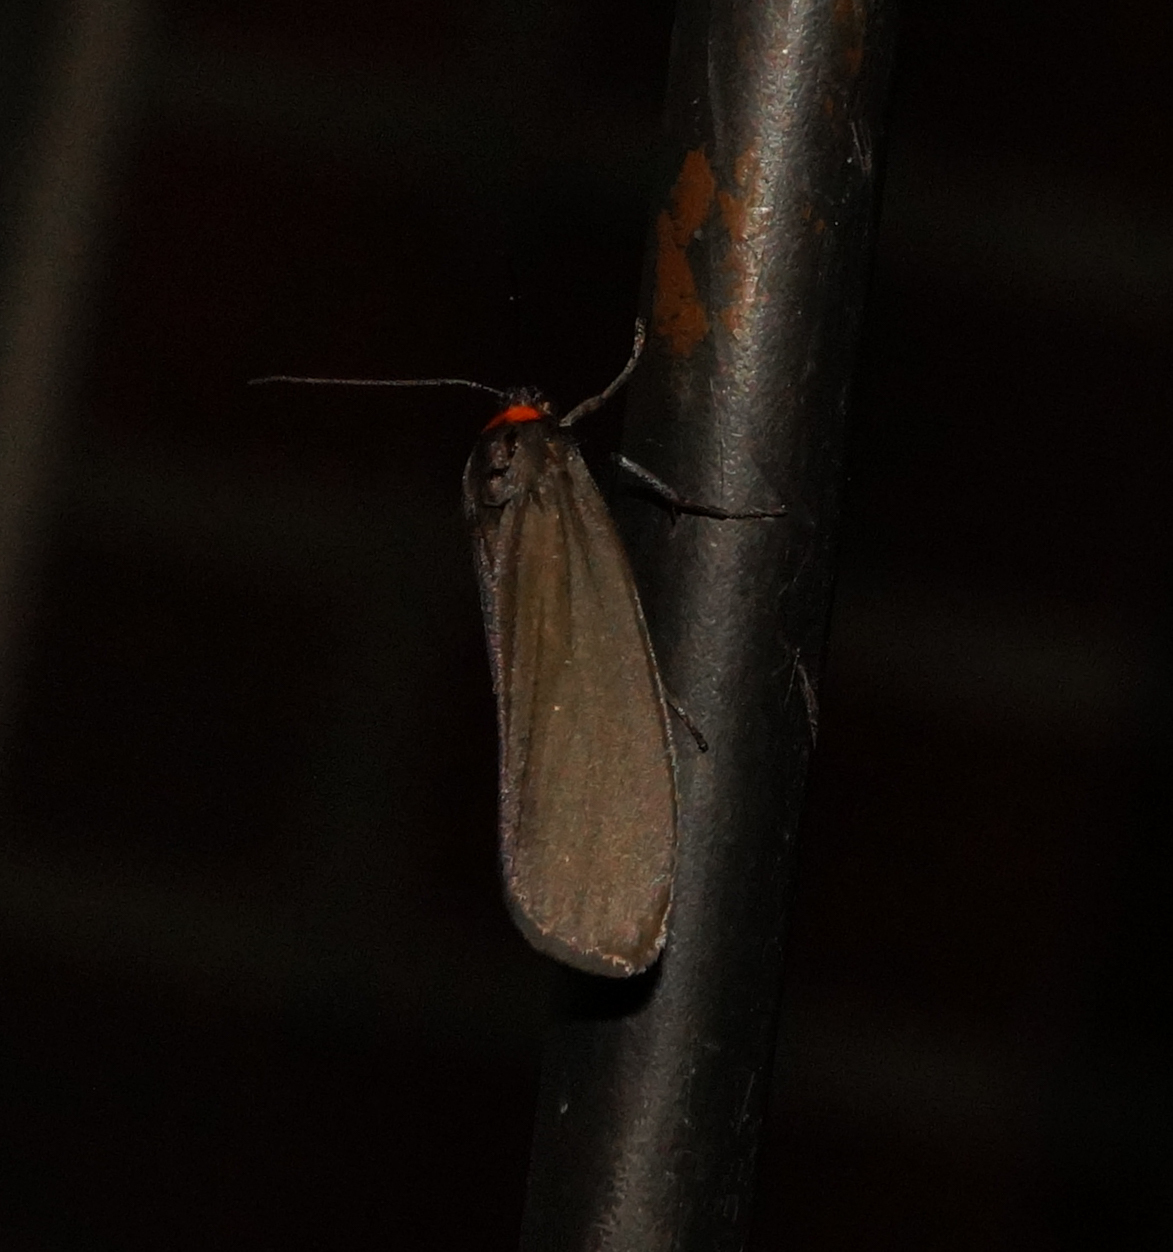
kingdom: Animalia
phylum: Arthropoda
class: Insecta
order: Lepidoptera
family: Erebidae
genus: Atolmis
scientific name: Atolmis rubricollis
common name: Red-necked footman
